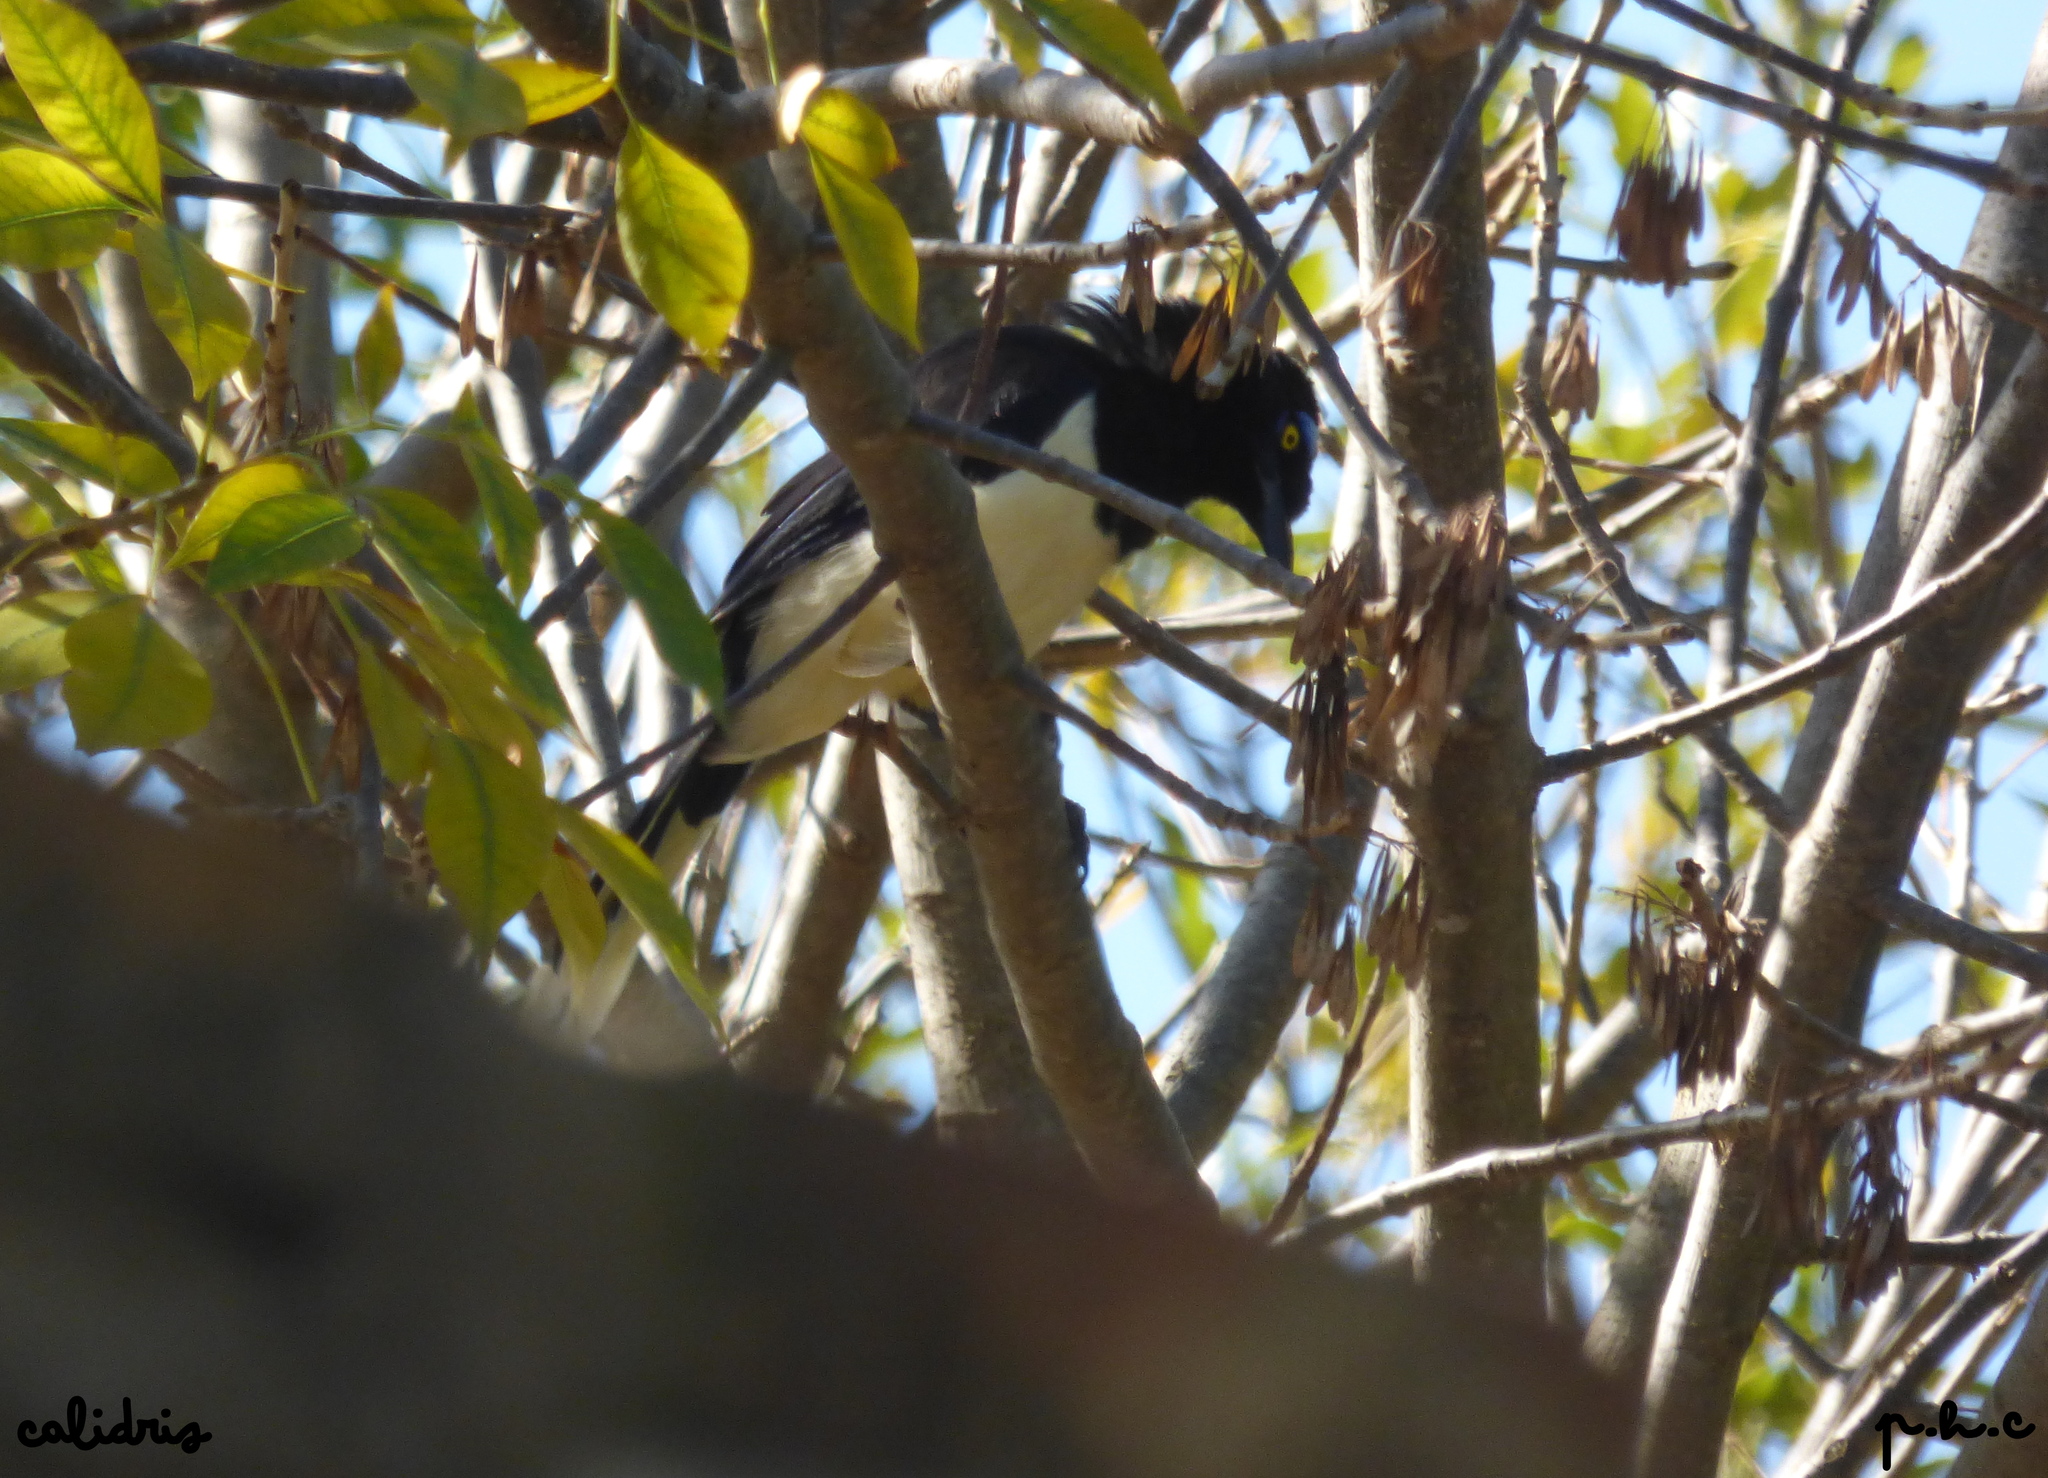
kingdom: Animalia
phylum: Chordata
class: Aves
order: Passeriformes
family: Corvidae
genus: Cyanocorax
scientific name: Cyanocorax chrysops
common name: Plush-crested jay
